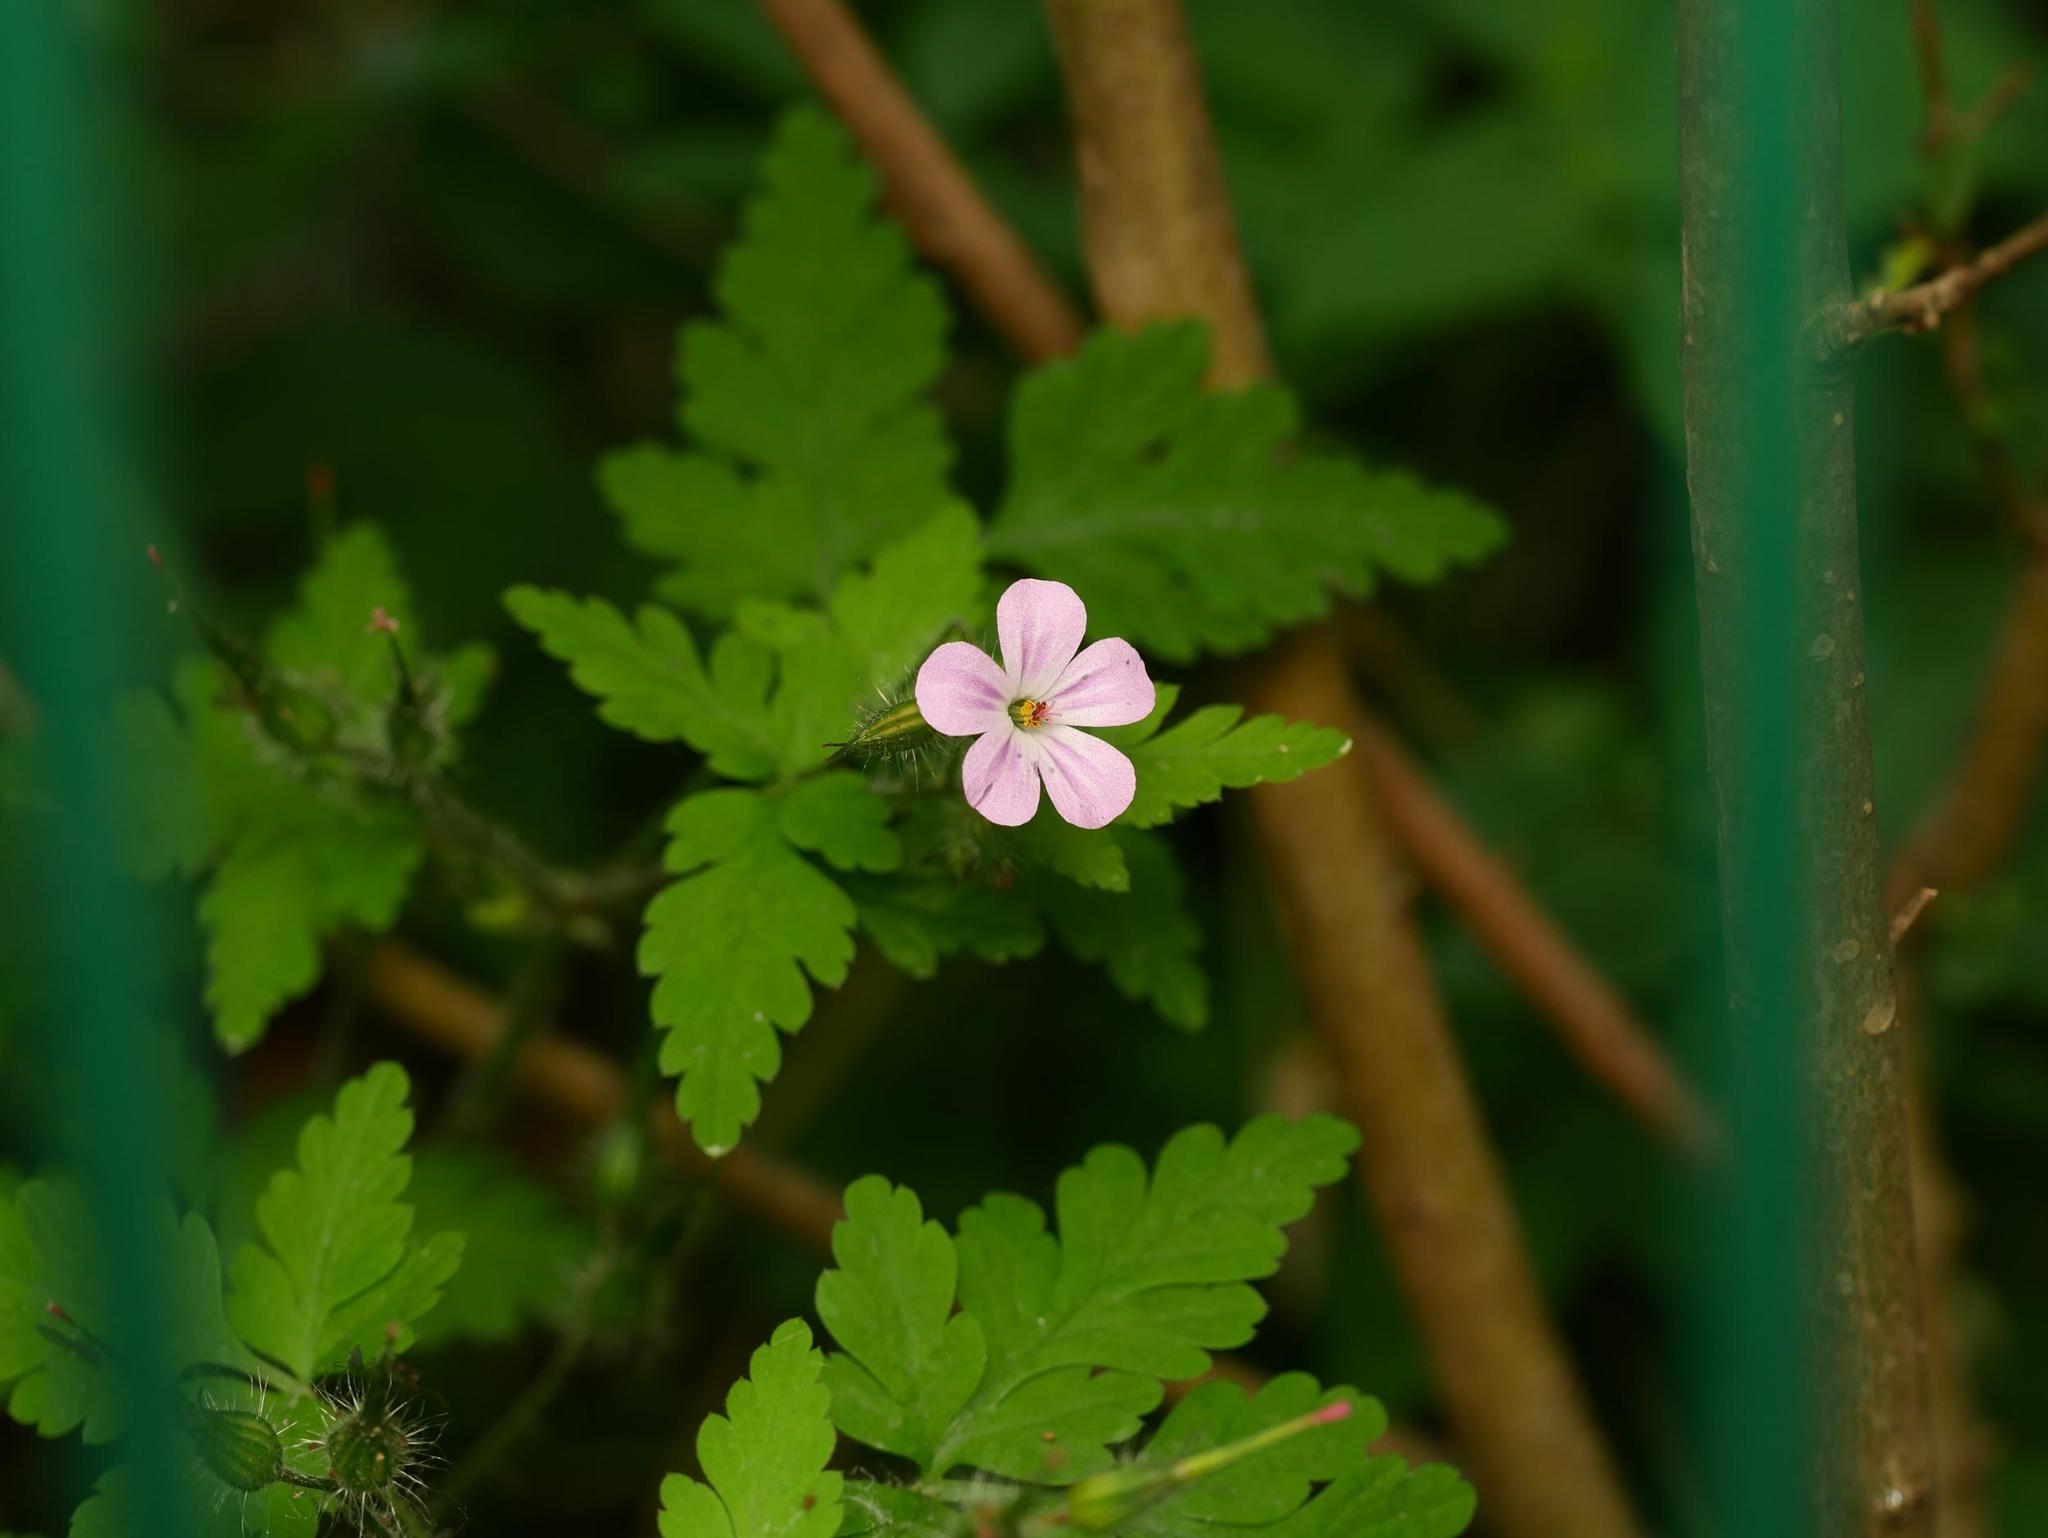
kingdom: Plantae
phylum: Tracheophyta
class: Magnoliopsida
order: Geraniales
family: Geraniaceae
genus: Geranium
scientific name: Geranium robertianum
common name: Herb-robert
